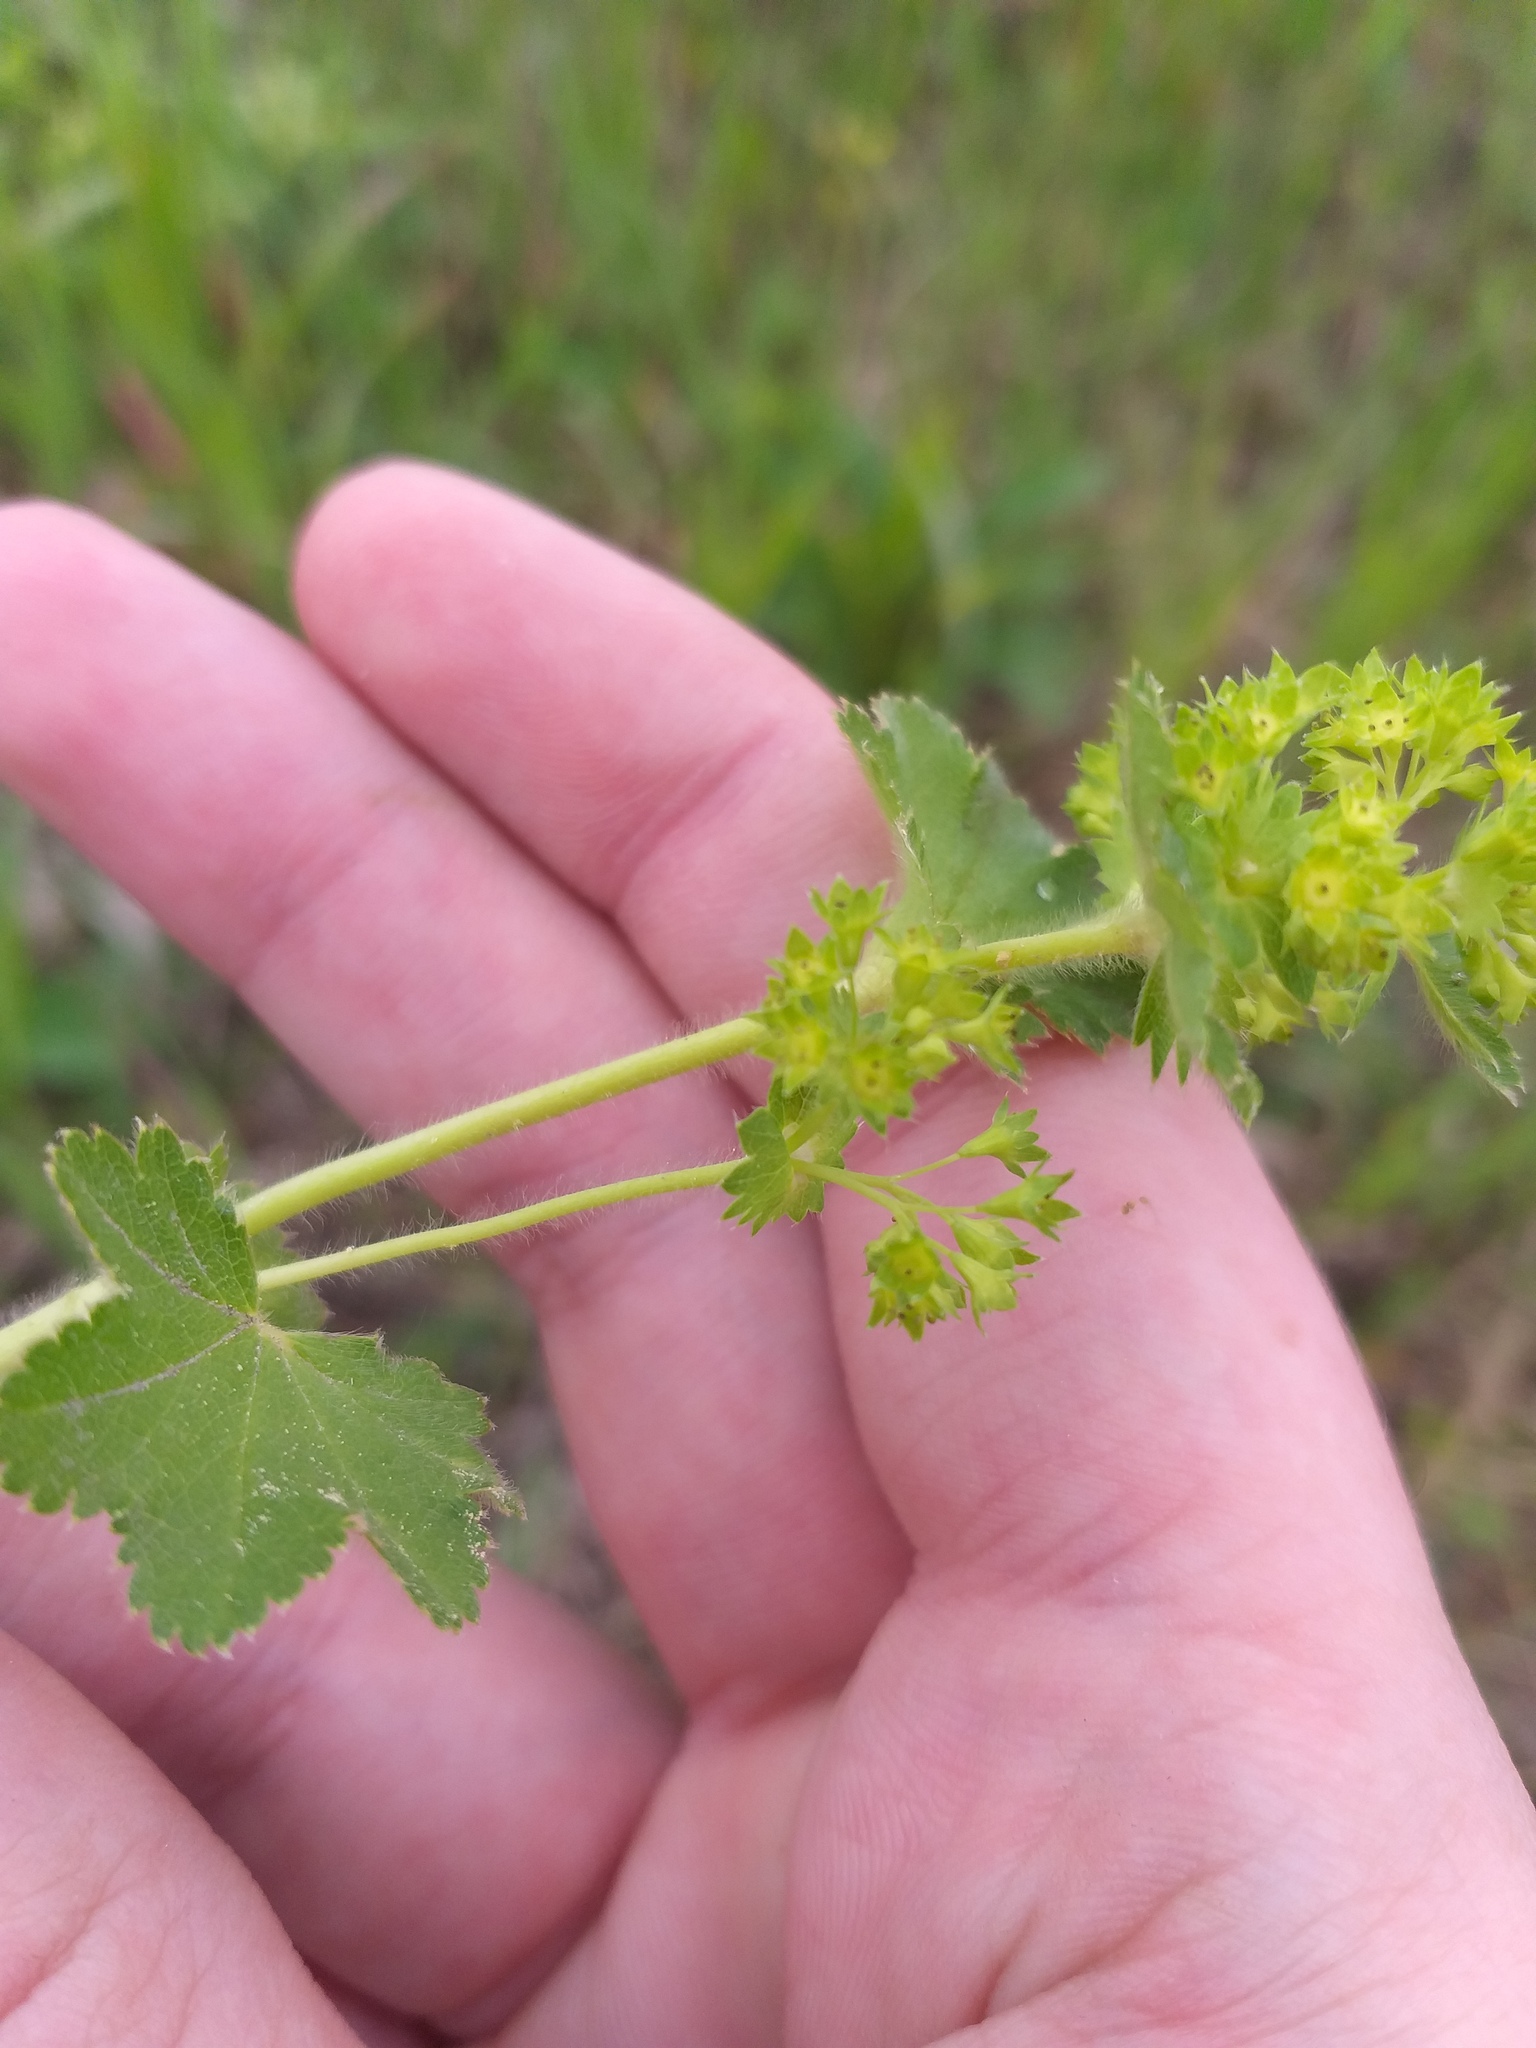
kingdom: Plantae
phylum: Tracheophyta
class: Magnoliopsida
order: Rosales
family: Rosaceae
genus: Alchemilla
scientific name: Alchemilla micans
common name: Gleaming lady's mantle
